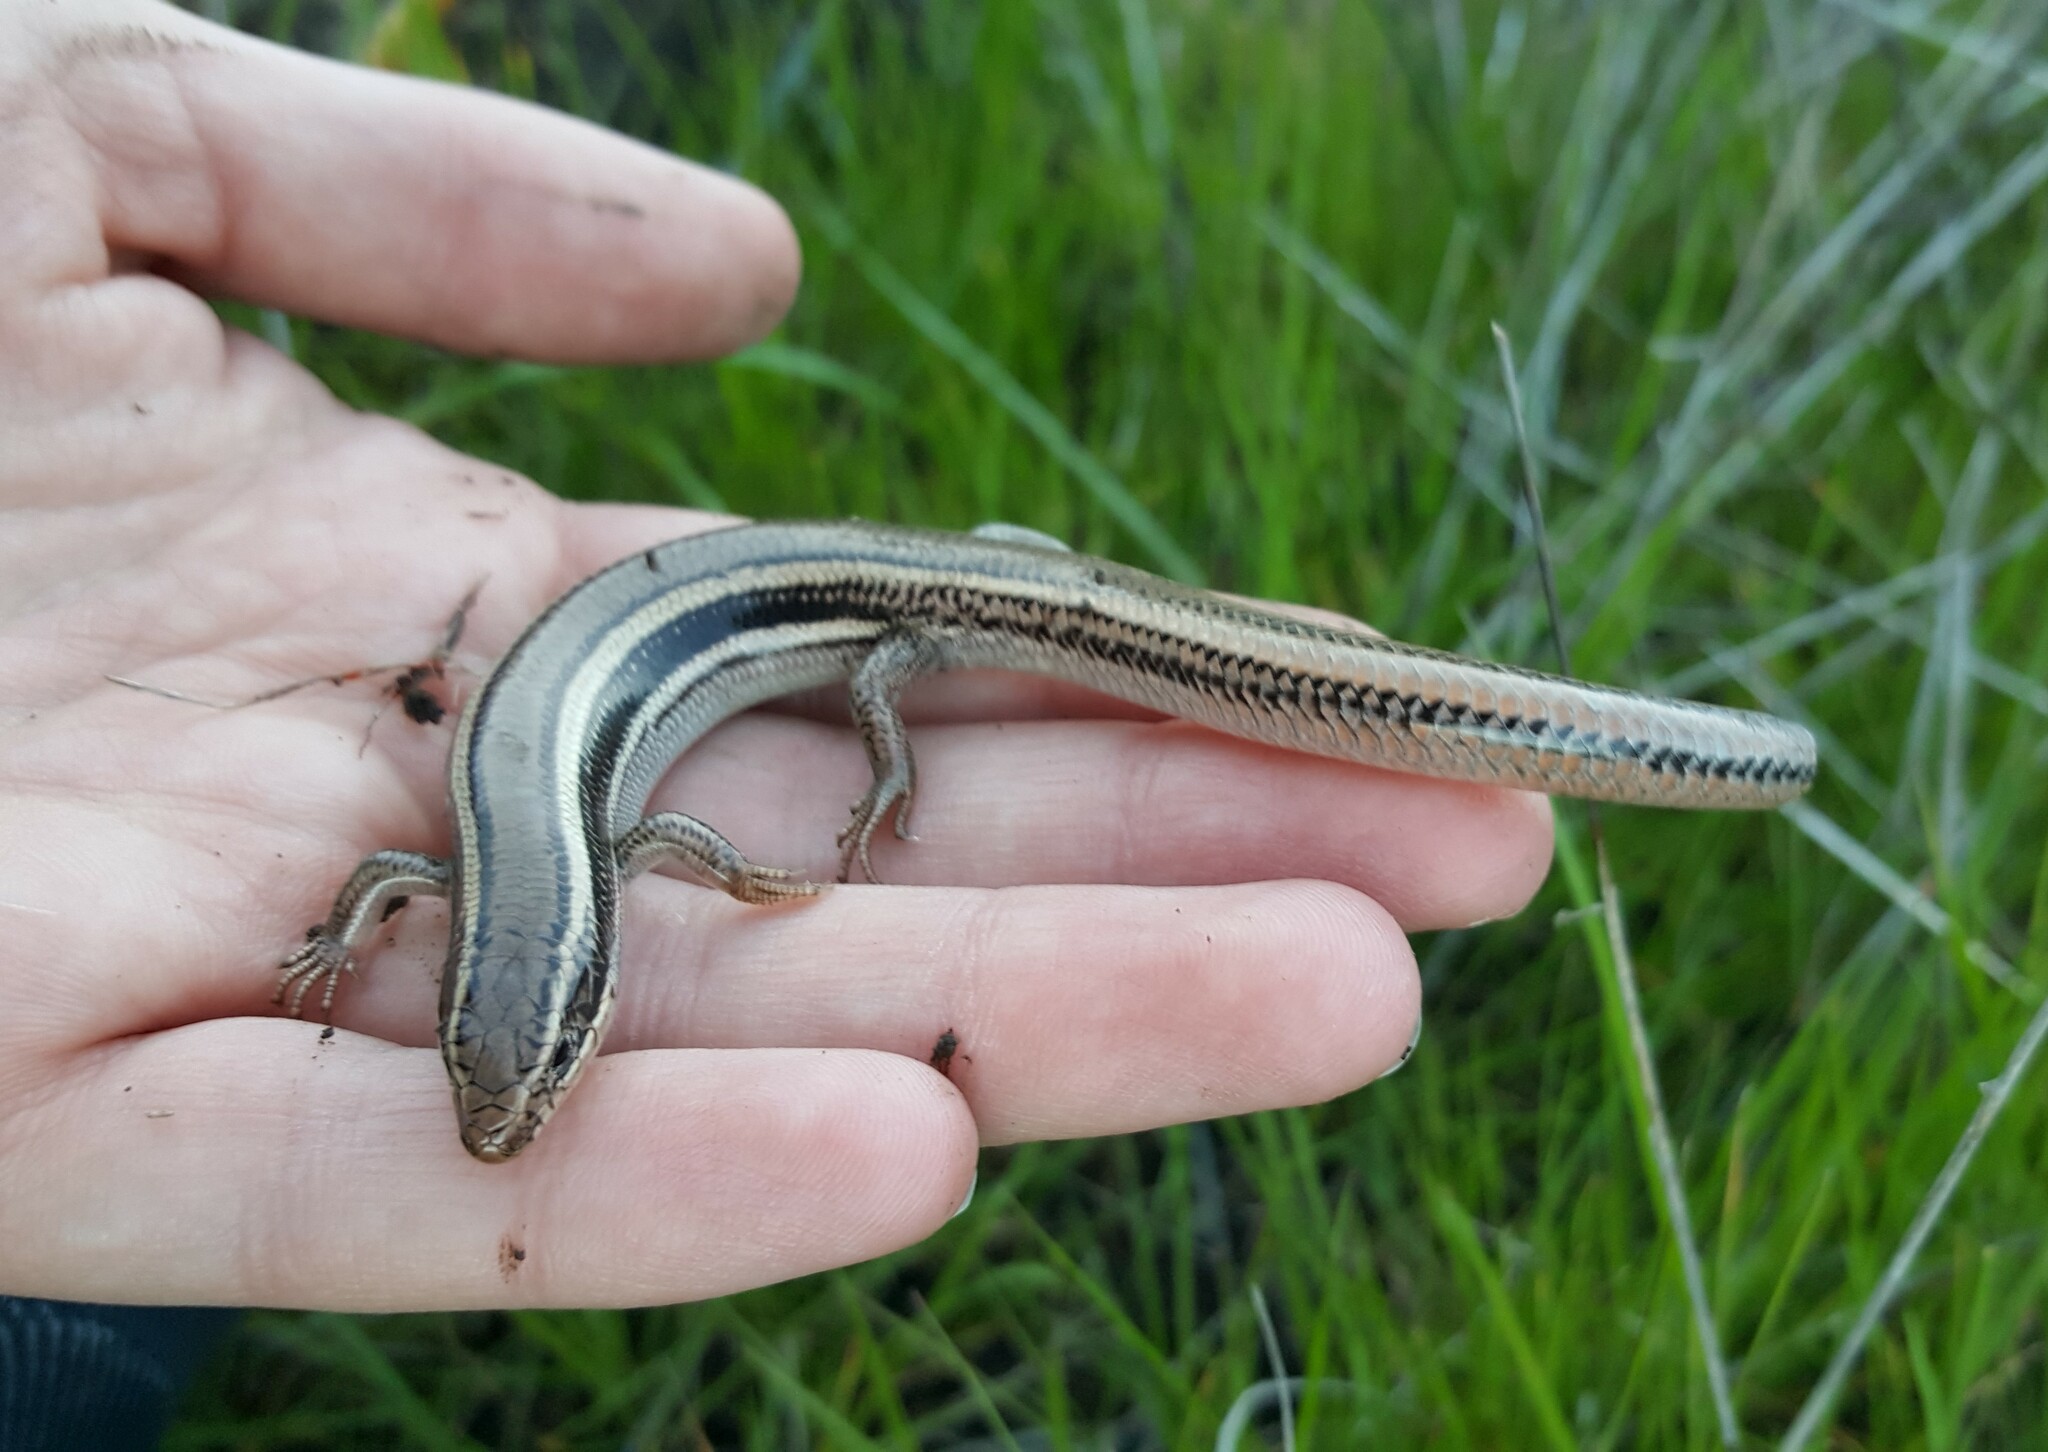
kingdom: Animalia
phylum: Chordata
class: Squamata
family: Scincidae
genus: Plestiodon
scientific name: Plestiodon skiltonianus
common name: Coronado island skink [interparietalis]
